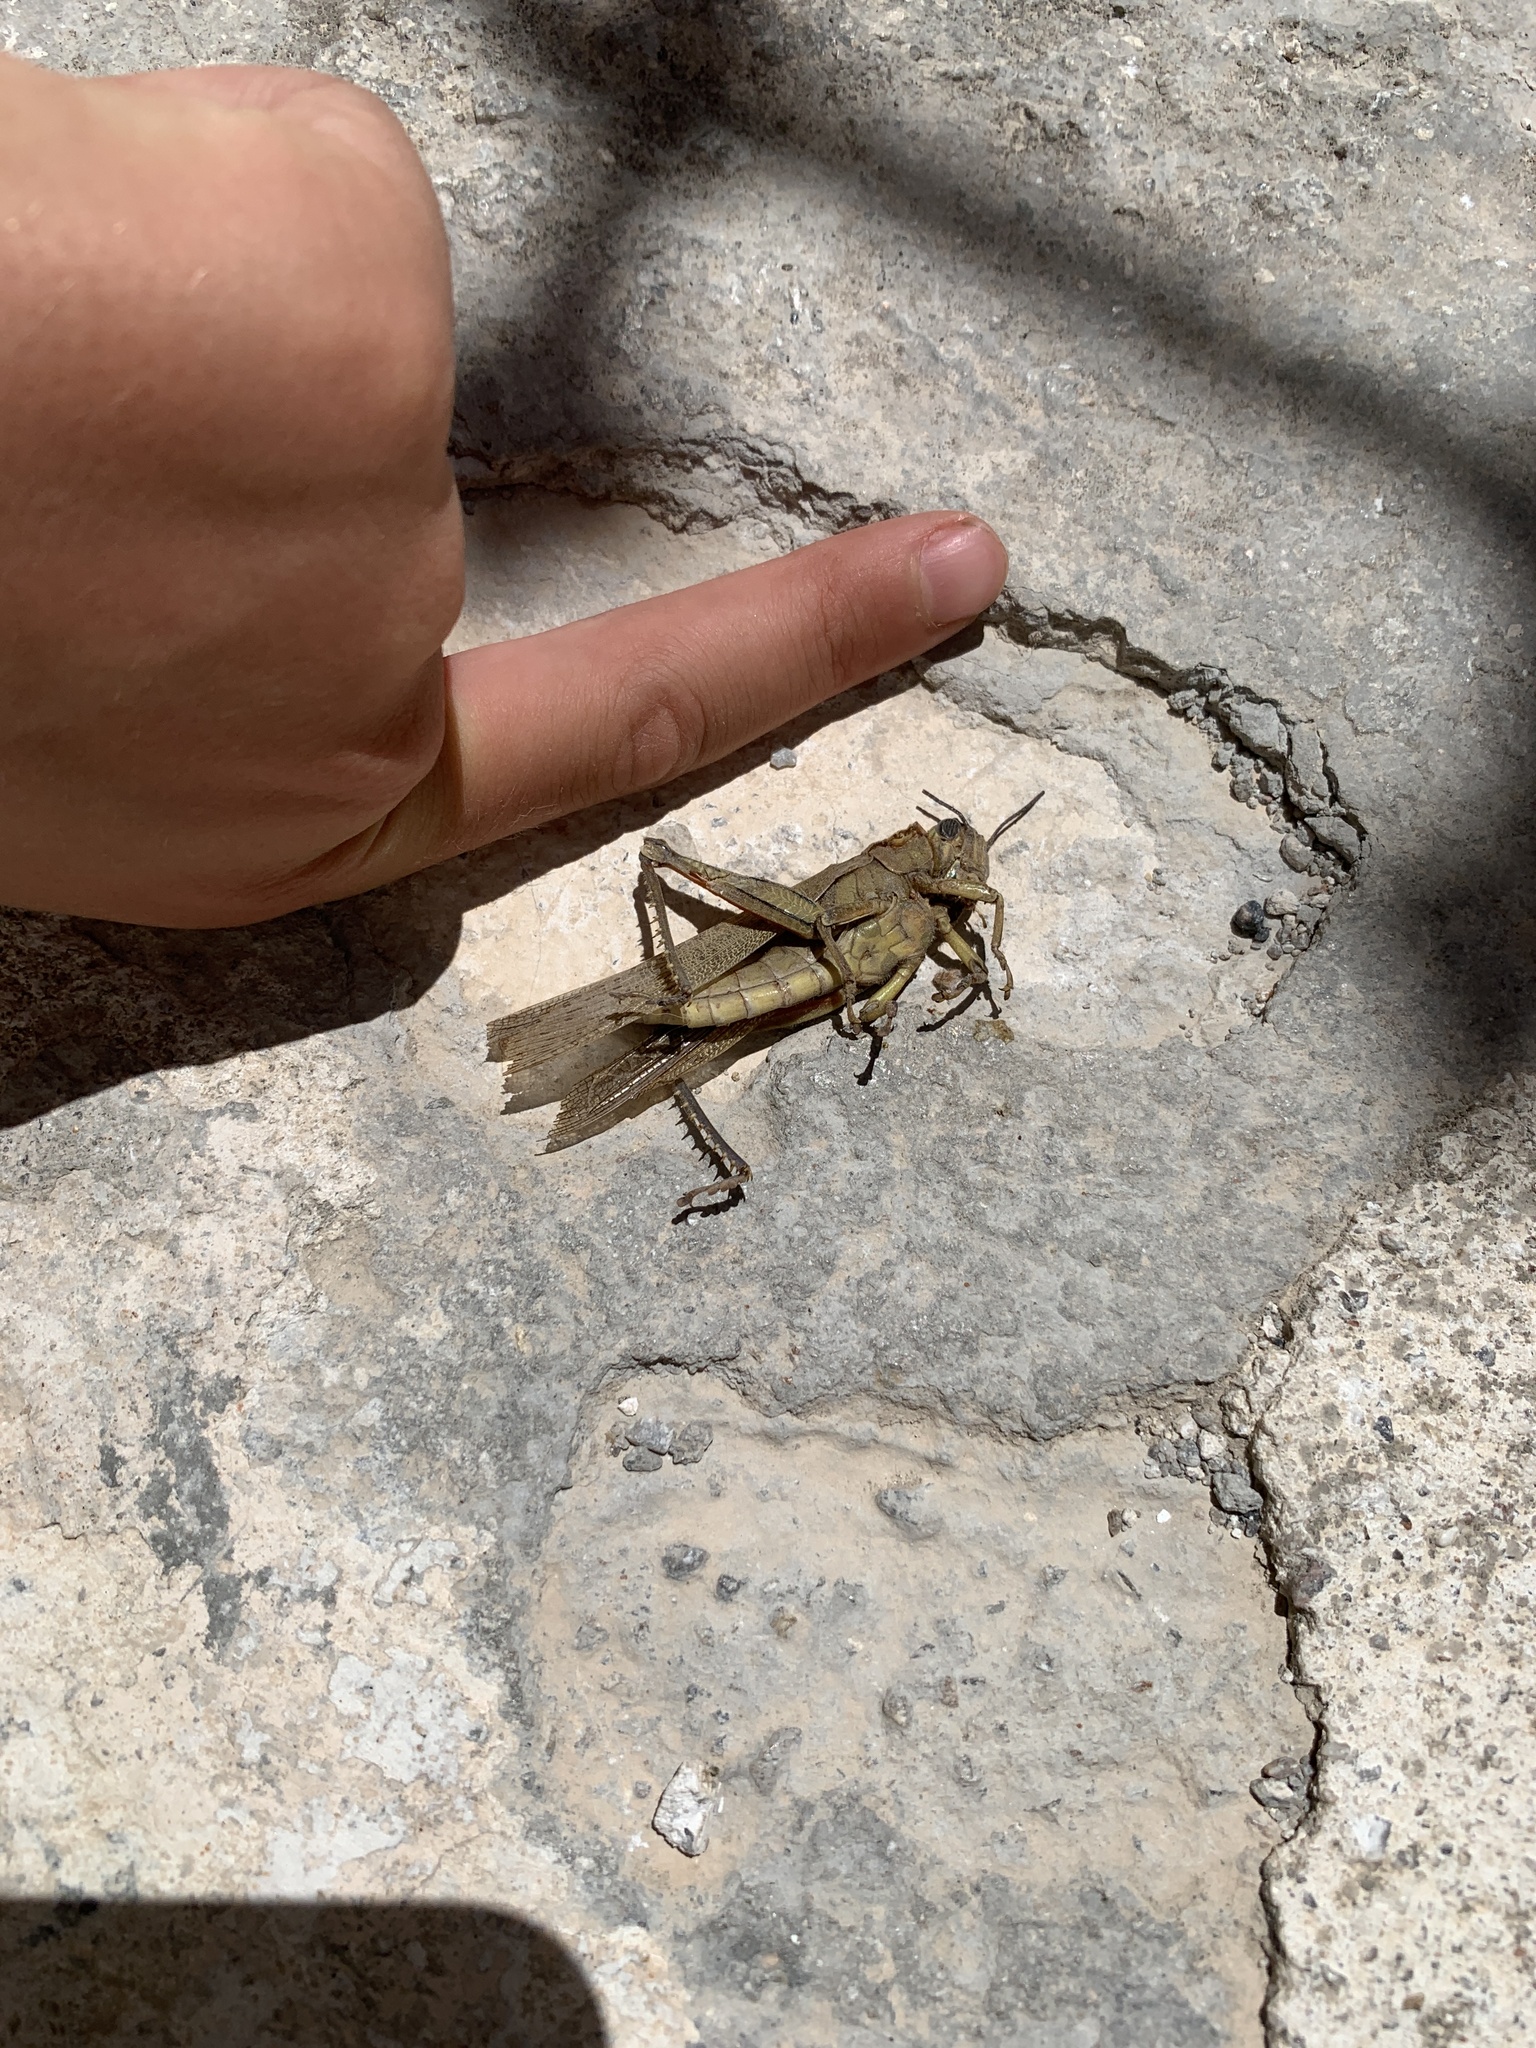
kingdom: Animalia
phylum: Arthropoda
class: Insecta
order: Orthoptera
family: Acrididae
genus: Anacridium
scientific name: Anacridium aegyptium
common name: Egyptian grasshopper
